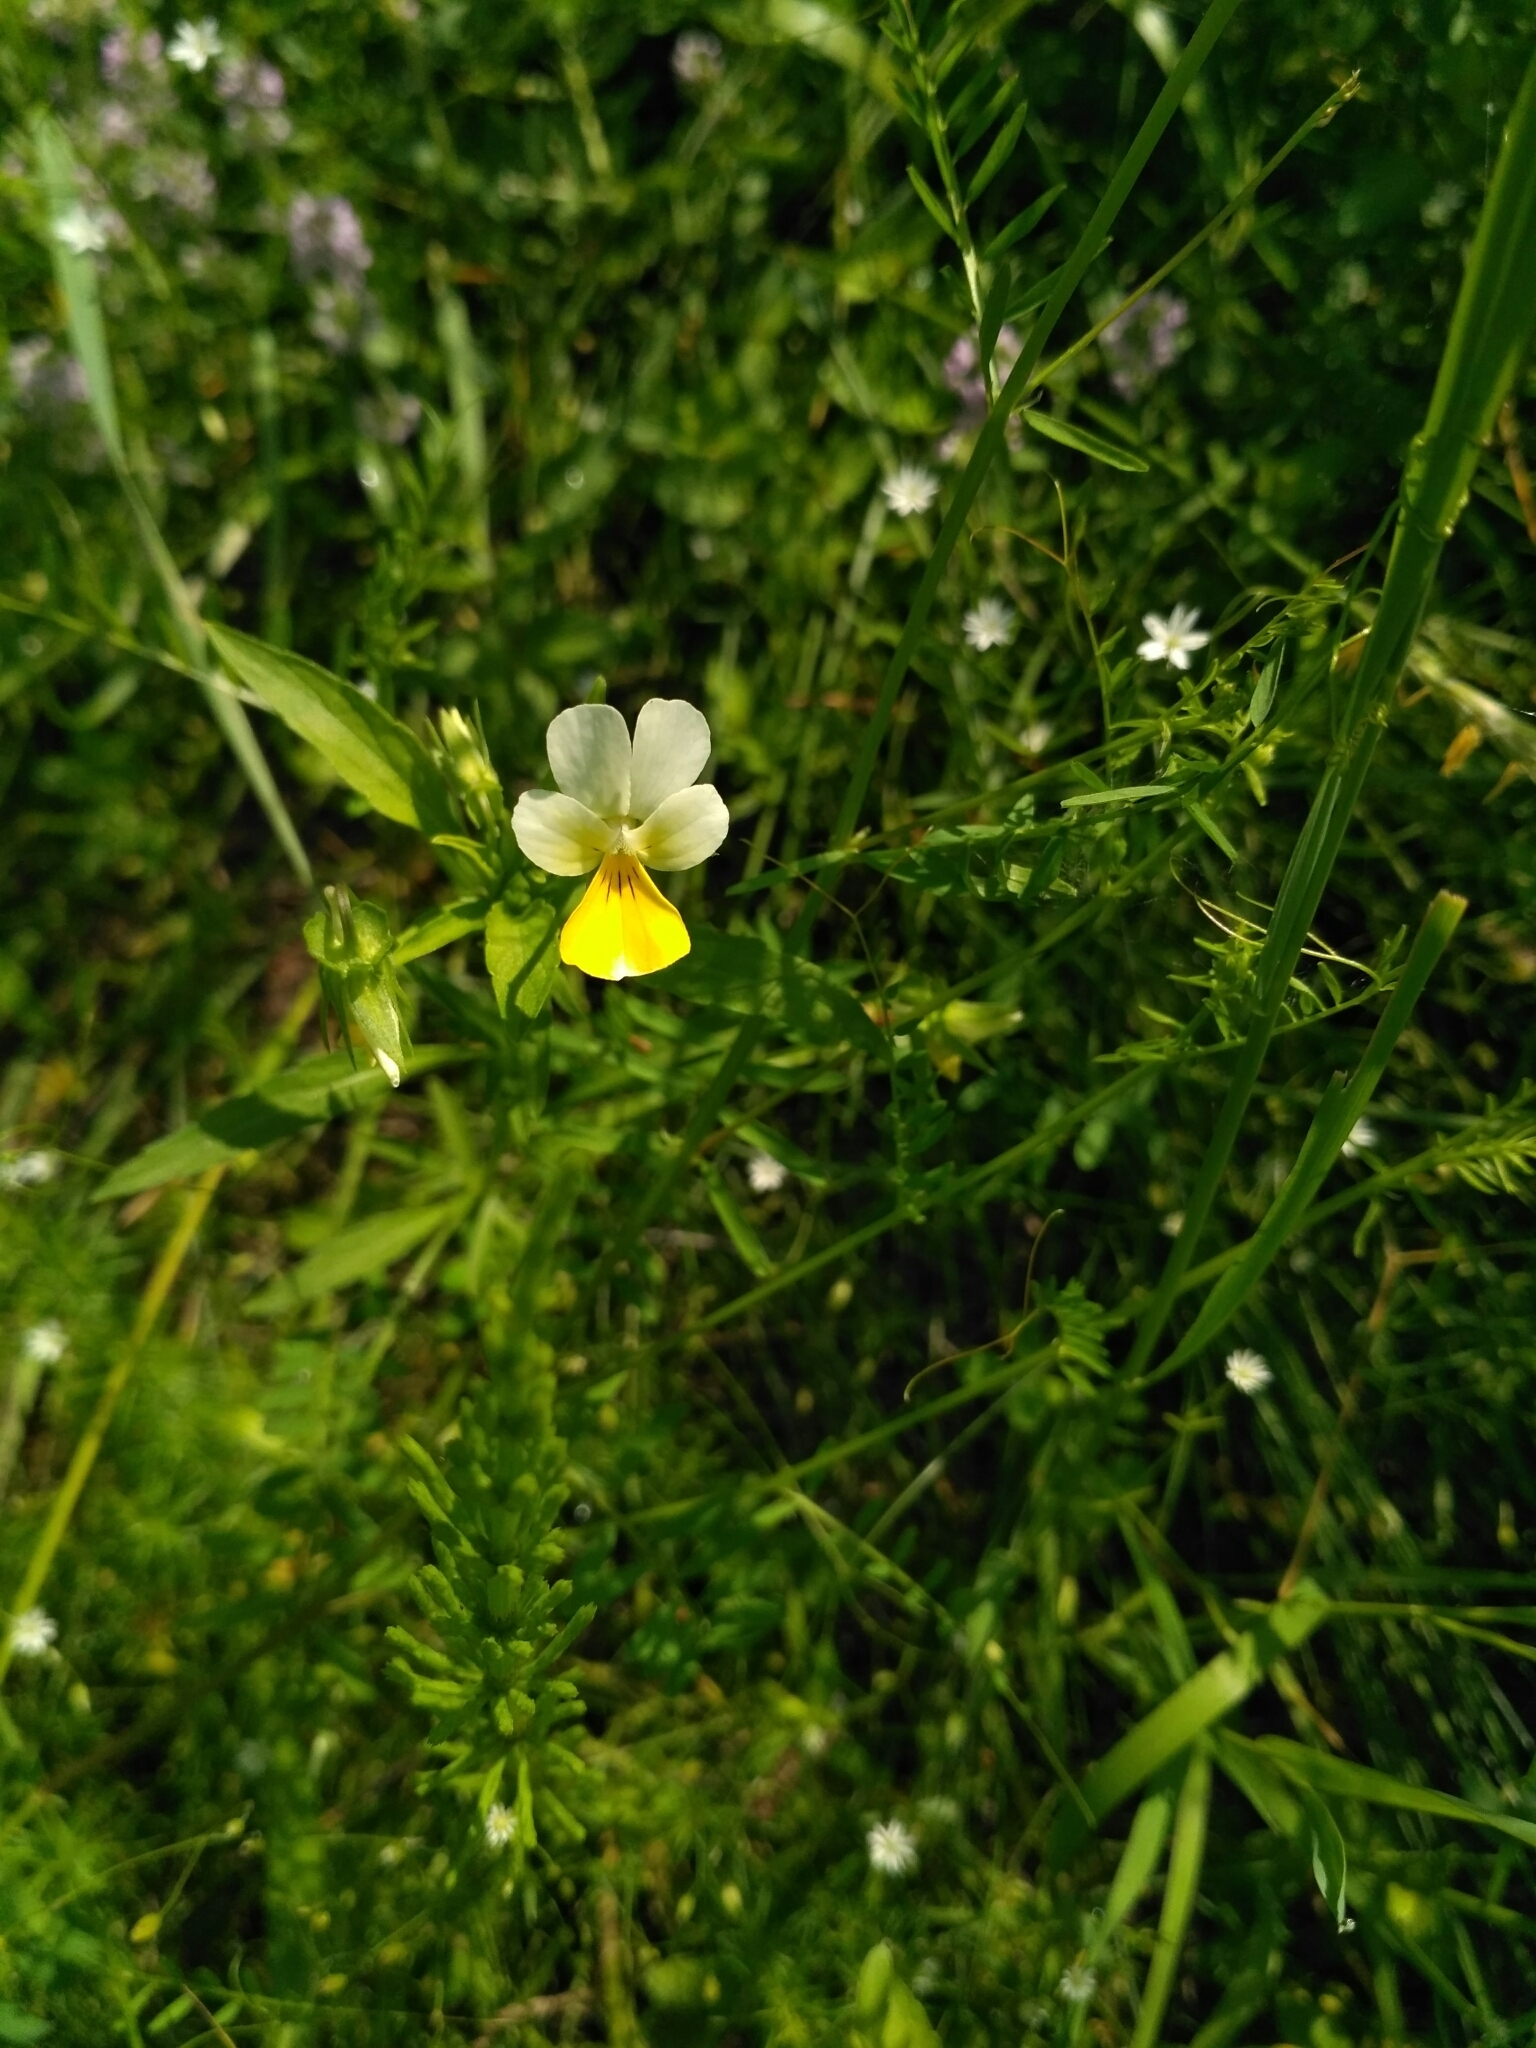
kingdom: Plantae
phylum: Tracheophyta
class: Magnoliopsida
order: Malpighiales
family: Violaceae
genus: Viola
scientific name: Viola tricolor
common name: Pansy
